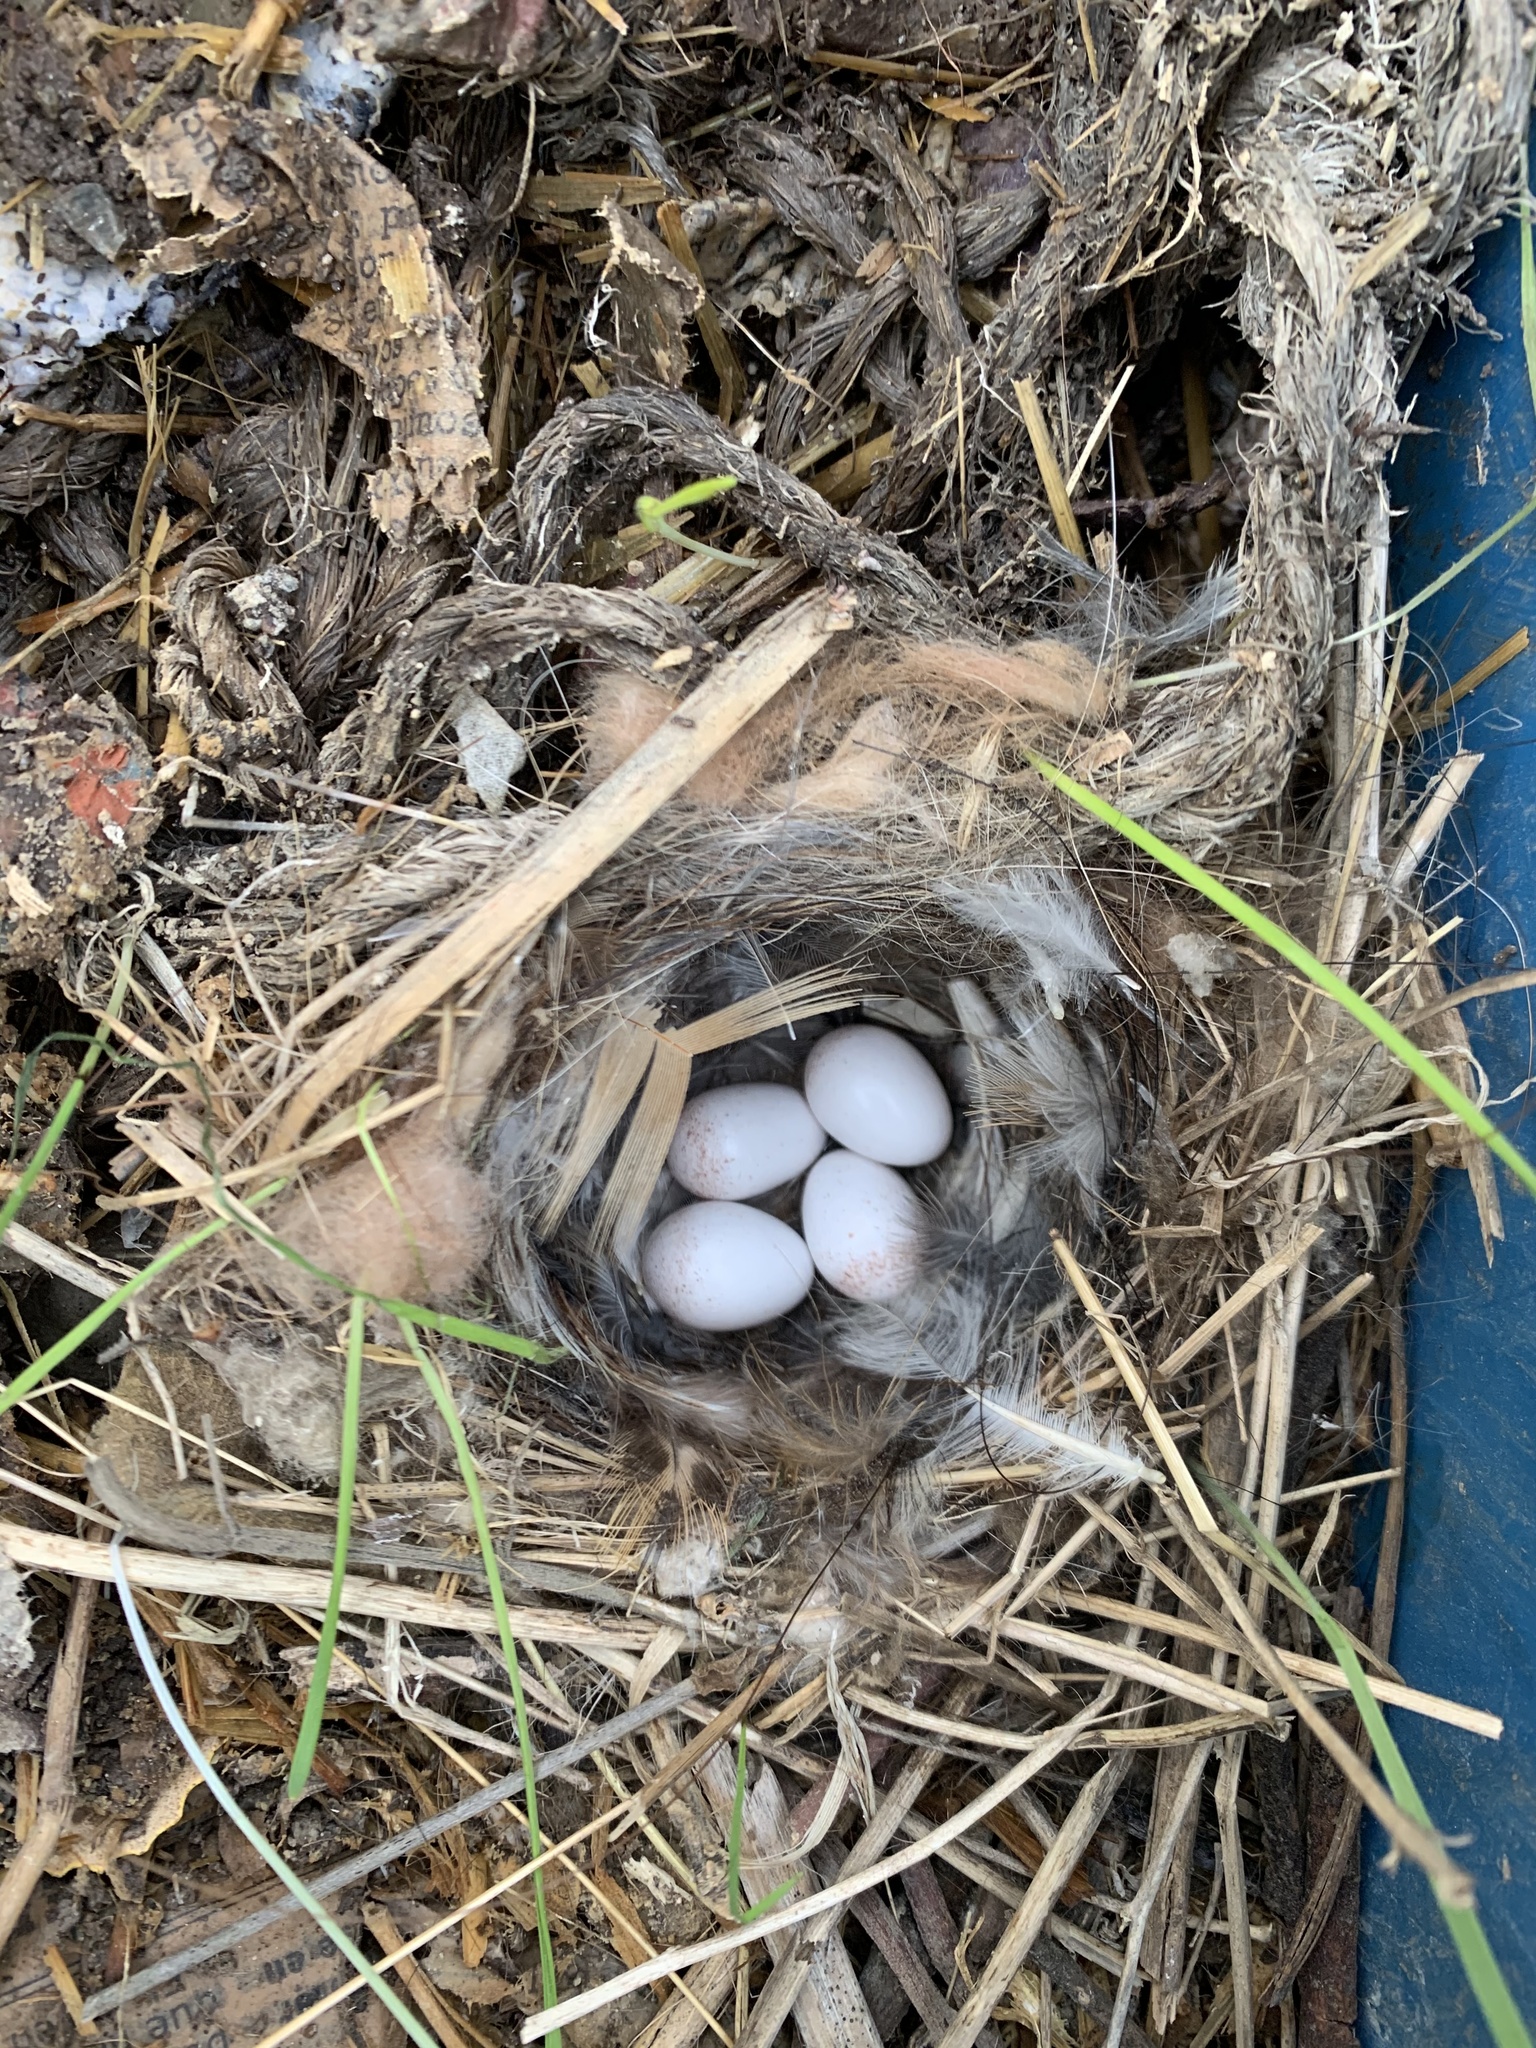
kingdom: Animalia
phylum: Chordata
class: Aves
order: Passeriformes
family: Troglodytidae
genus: Thryomanes
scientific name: Thryomanes bewickii
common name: Bewick's wren
